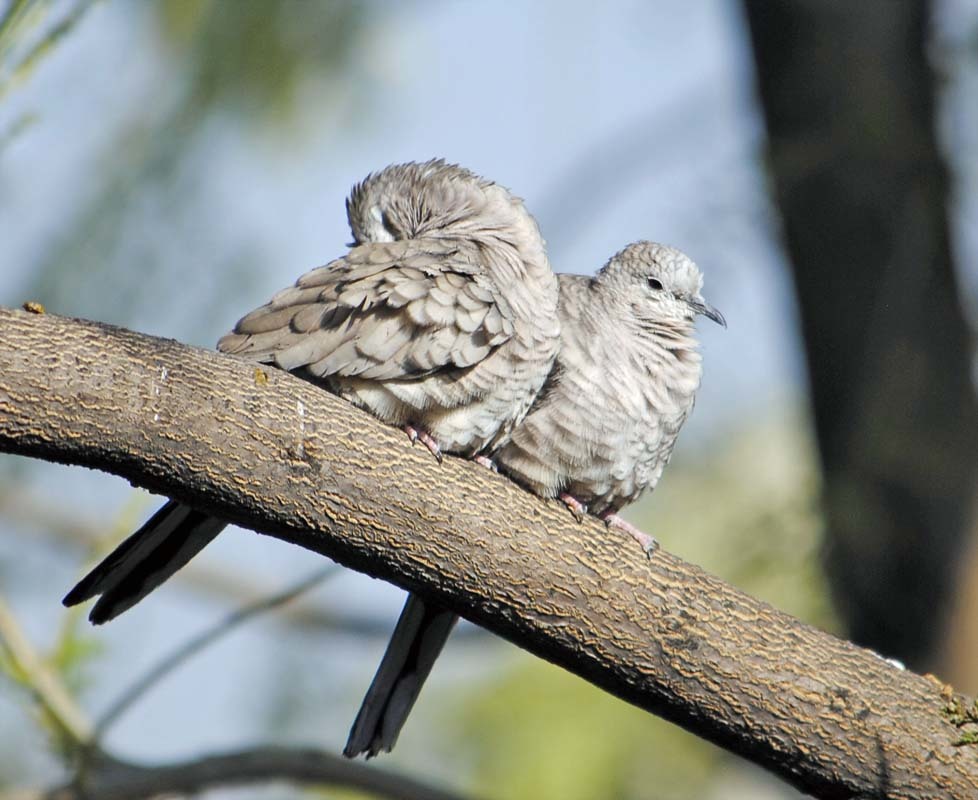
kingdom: Animalia
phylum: Chordata
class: Aves
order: Columbiformes
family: Columbidae
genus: Columbina
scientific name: Columbina inca
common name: Inca dove
